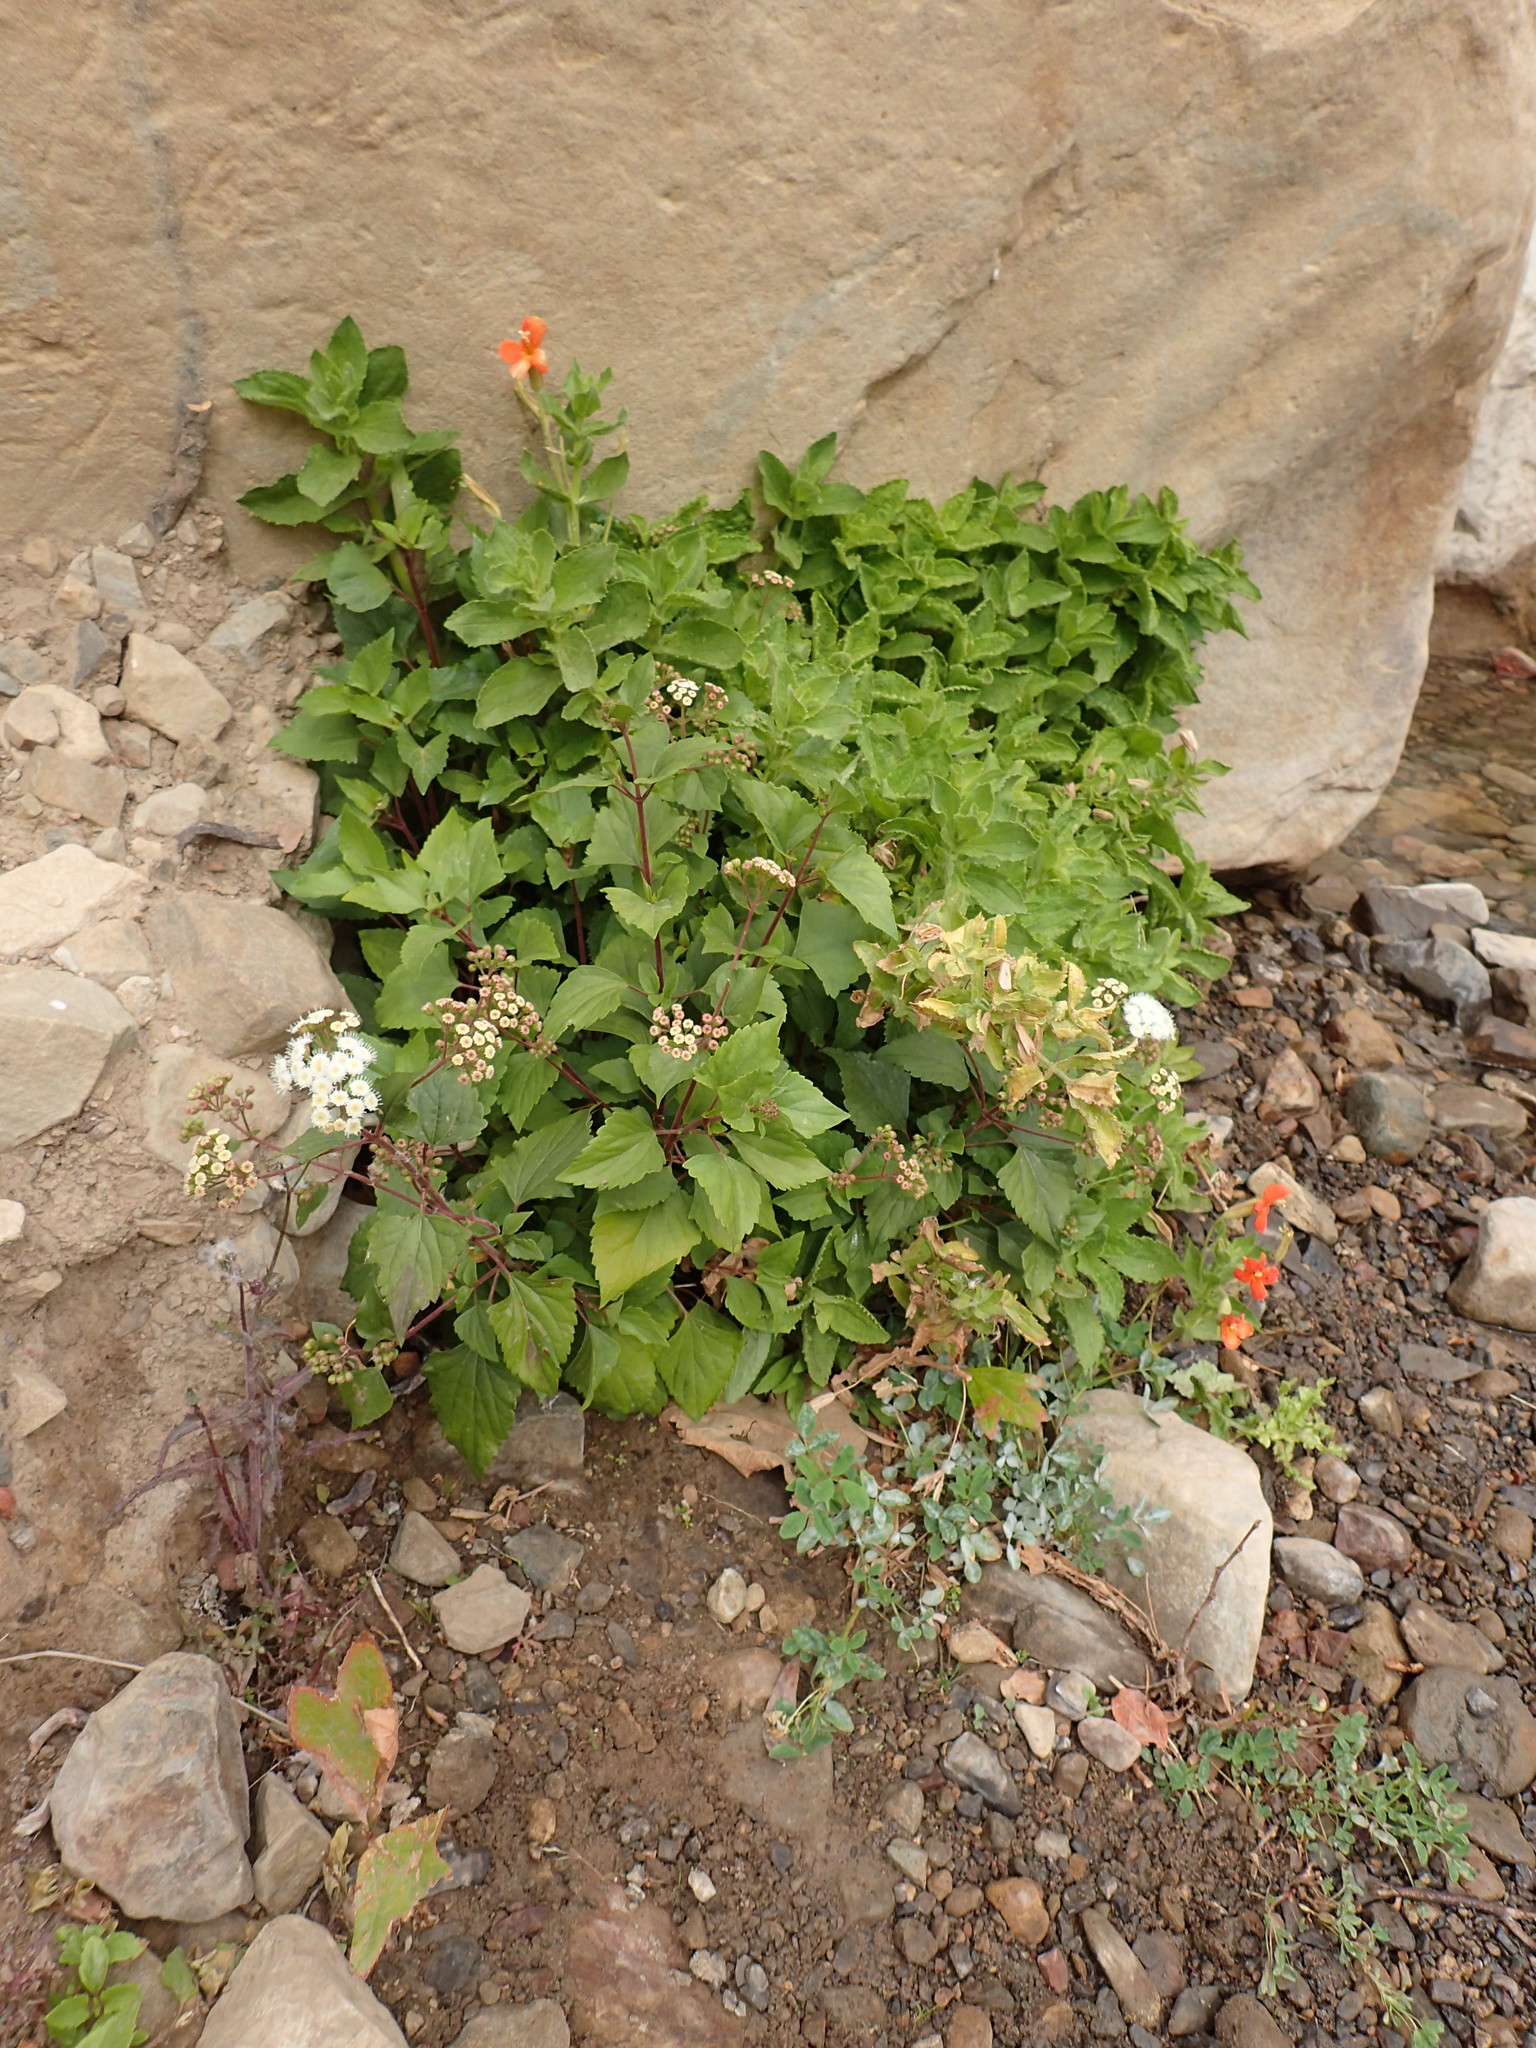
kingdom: Plantae
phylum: Tracheophyta
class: Magnoliopsida
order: Asterales
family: Asteraceae
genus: Ageratina
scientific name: Ageratina adenophora
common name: Sticky snakeroot
